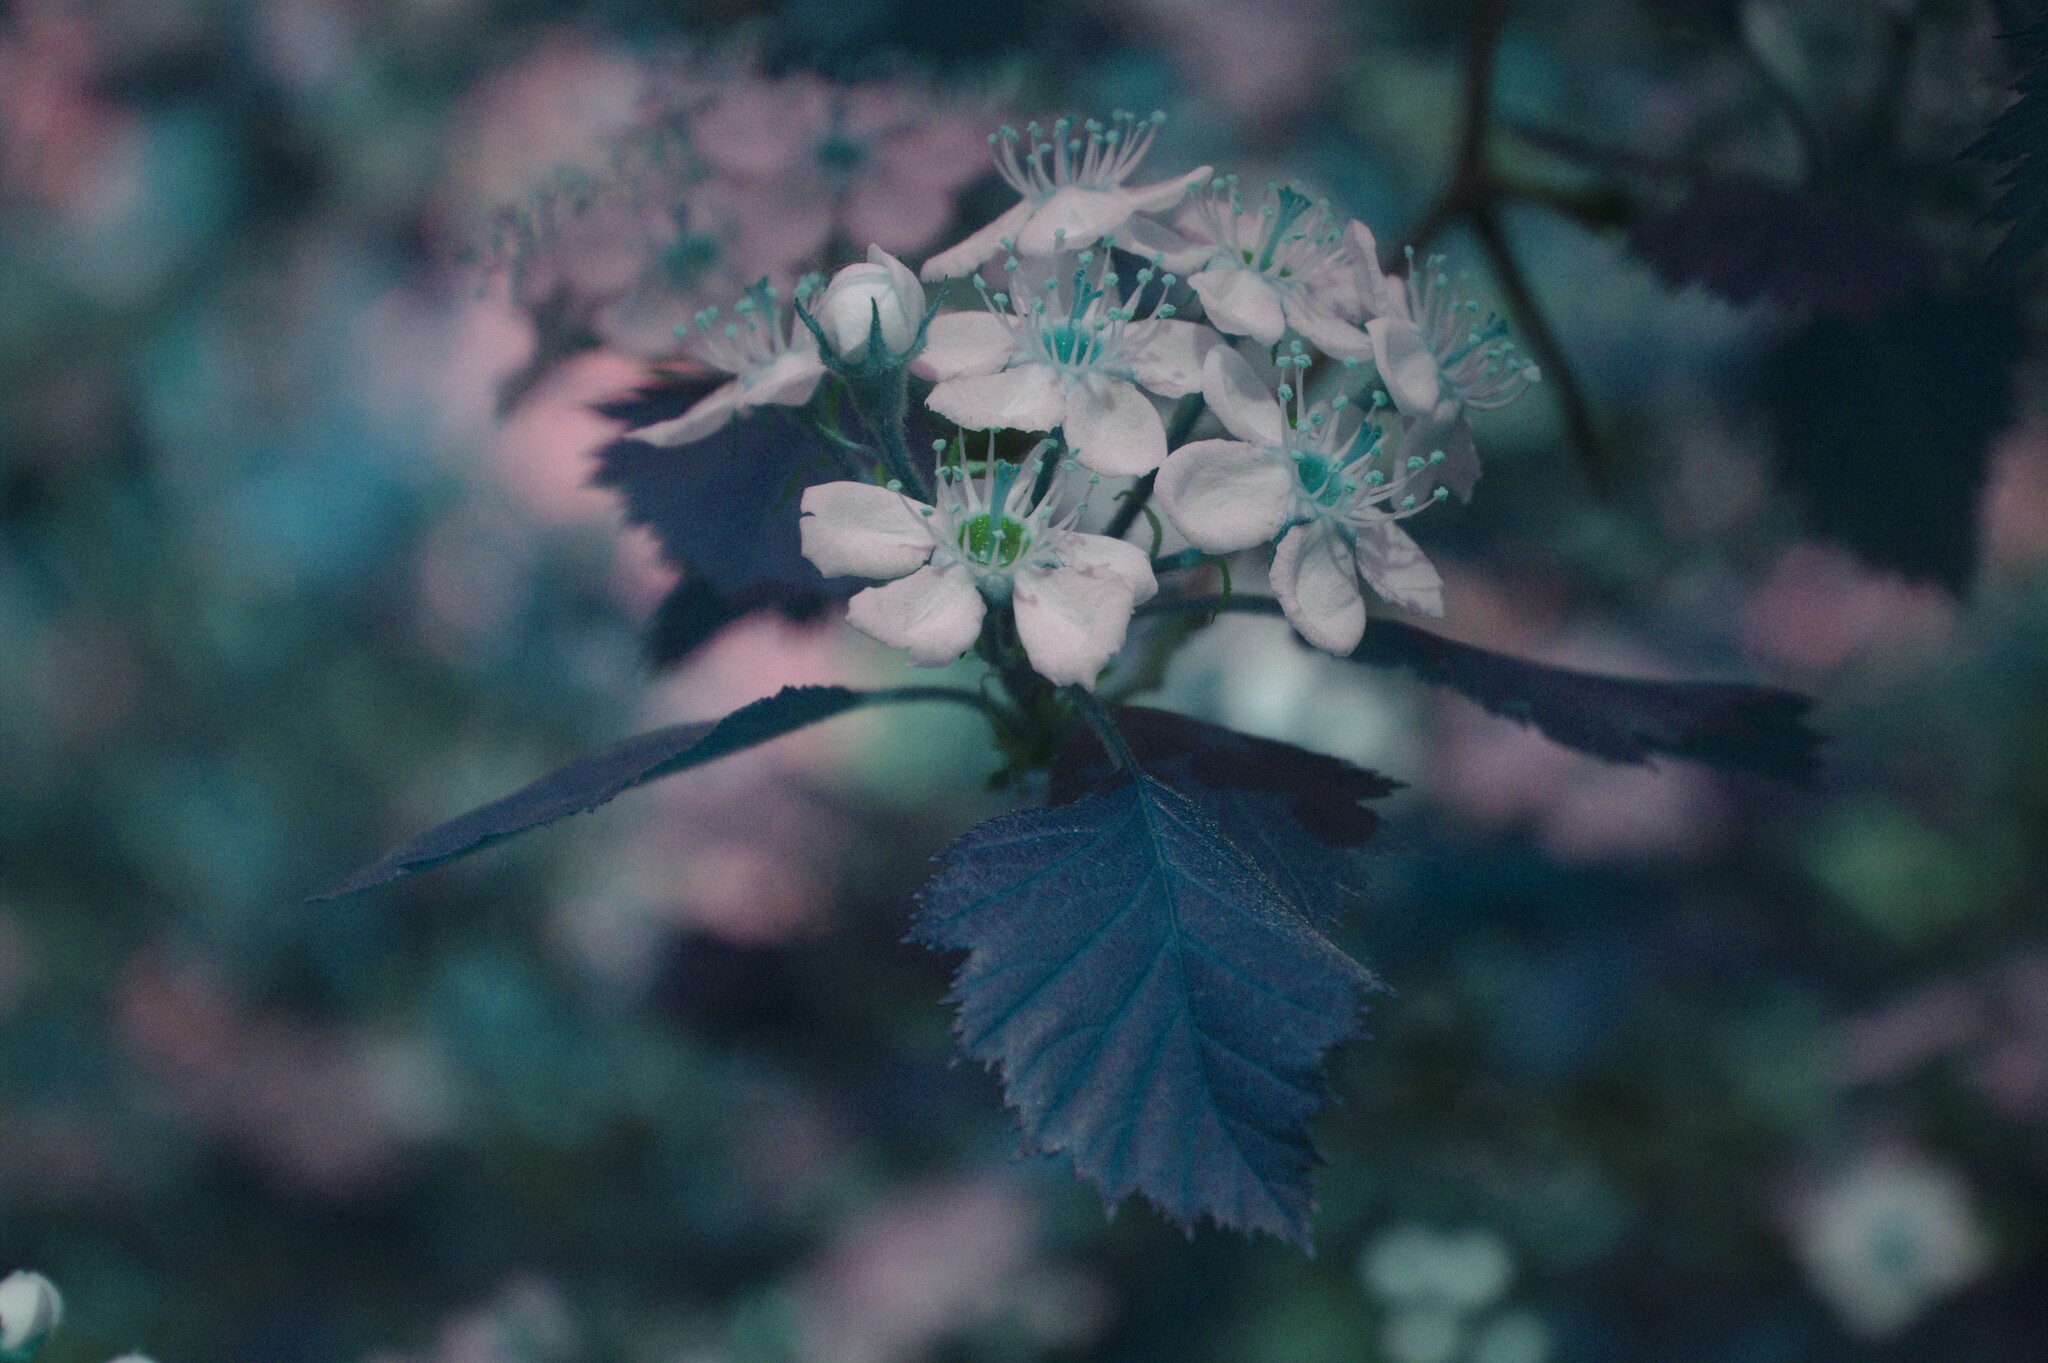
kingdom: Plantae
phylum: Tracheophyta
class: Magnoliopsida
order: Rosales
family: Rosaceae
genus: Crataegus
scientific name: Crataegus submollis
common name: Hairy cockspurthorn
